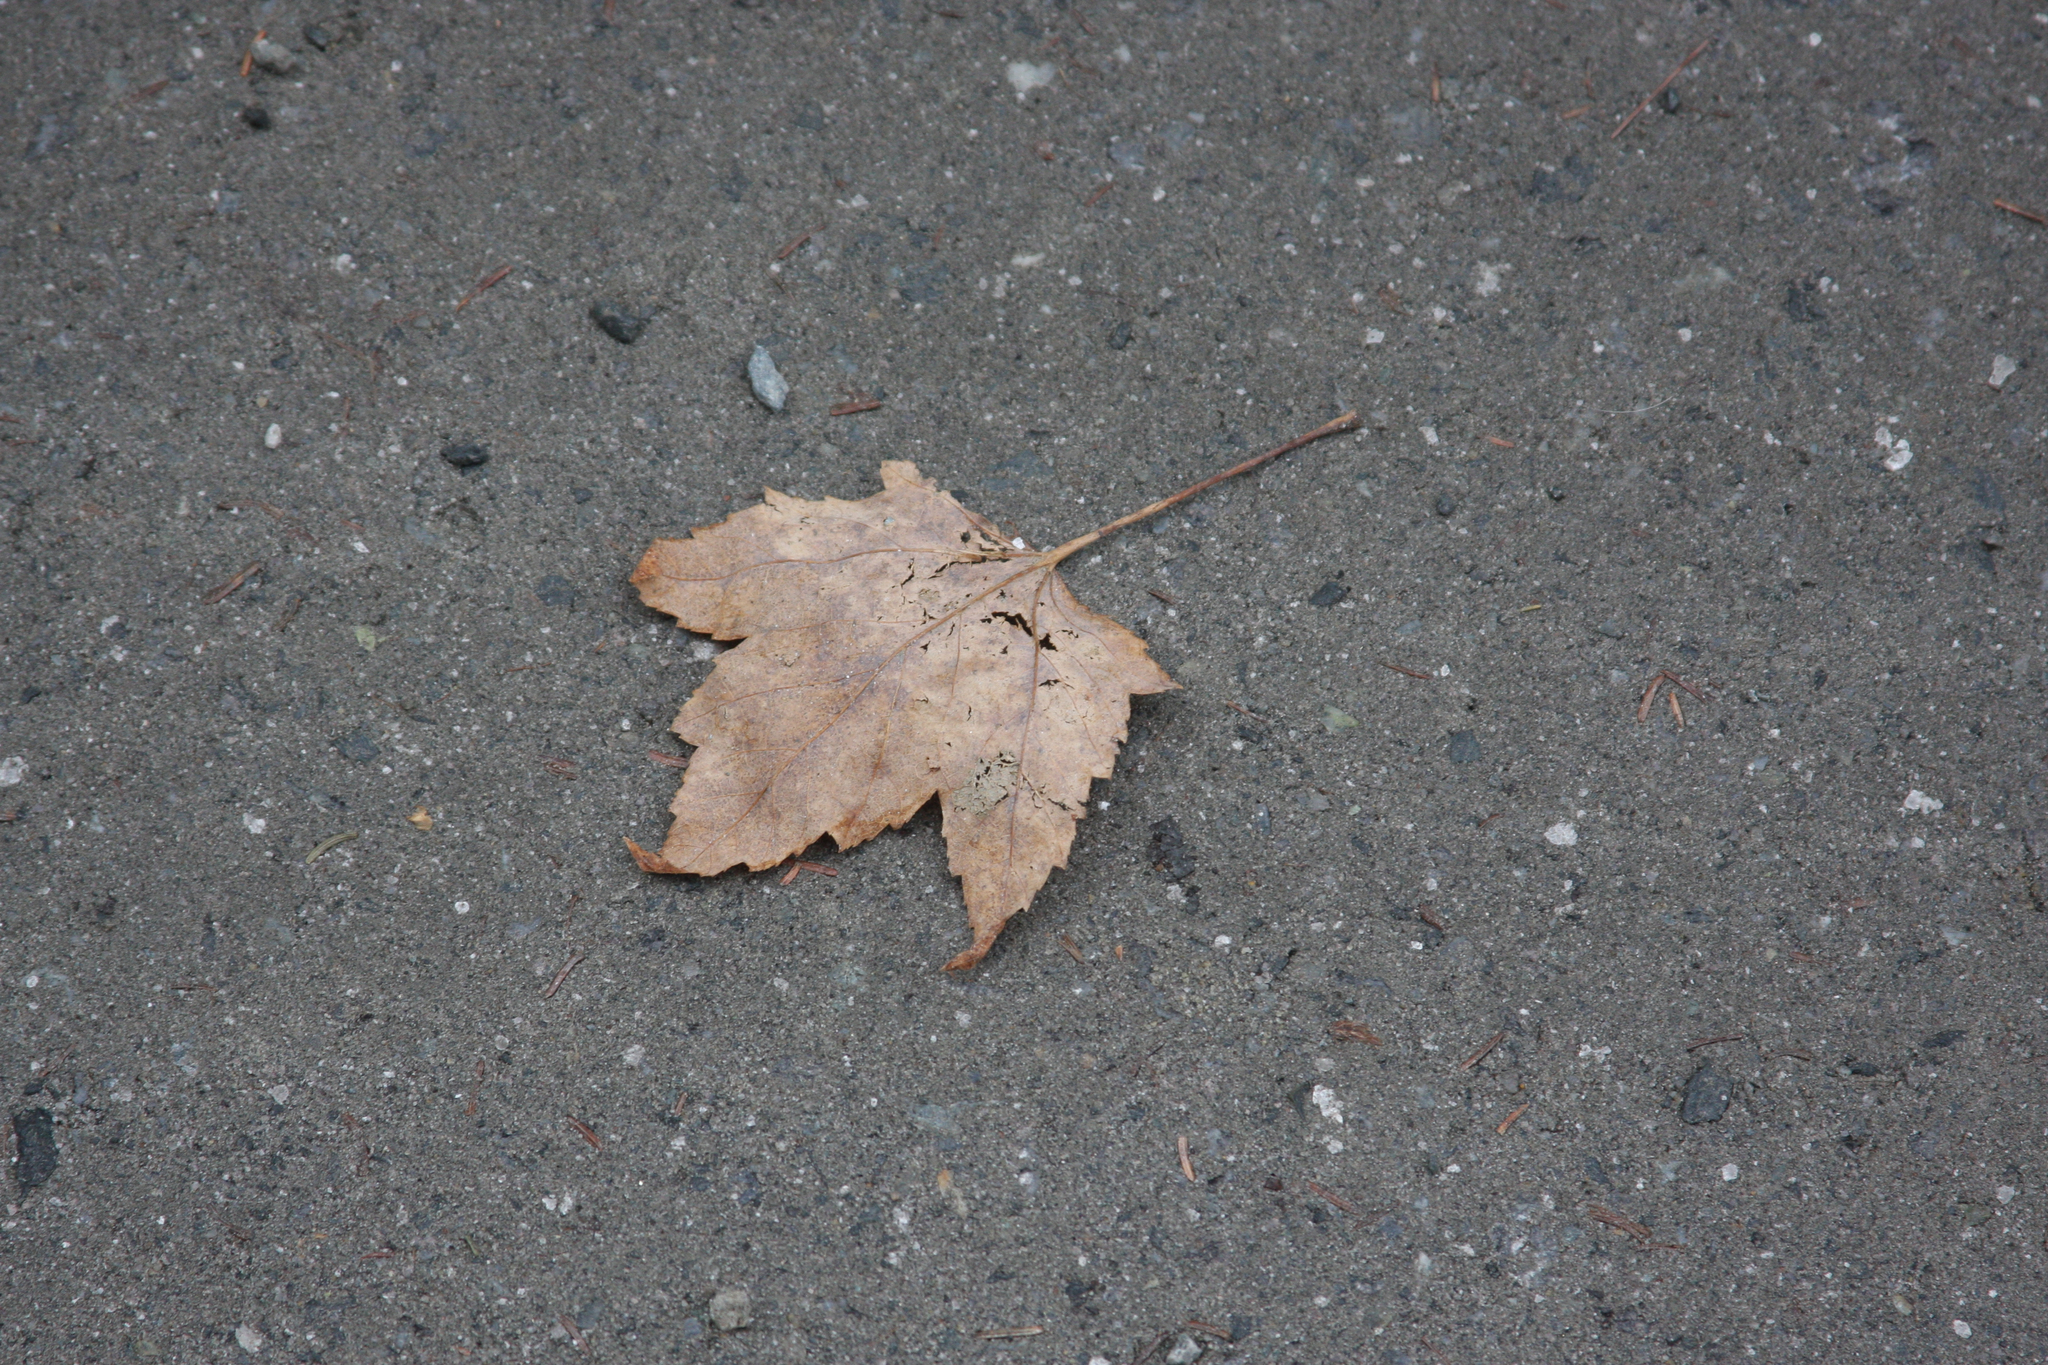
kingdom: Plantae
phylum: Tracheophyta
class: Magnoliopsida
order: Sapindales
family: Sapindaceae
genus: Acer
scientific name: Acer rubrum
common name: Red maple
